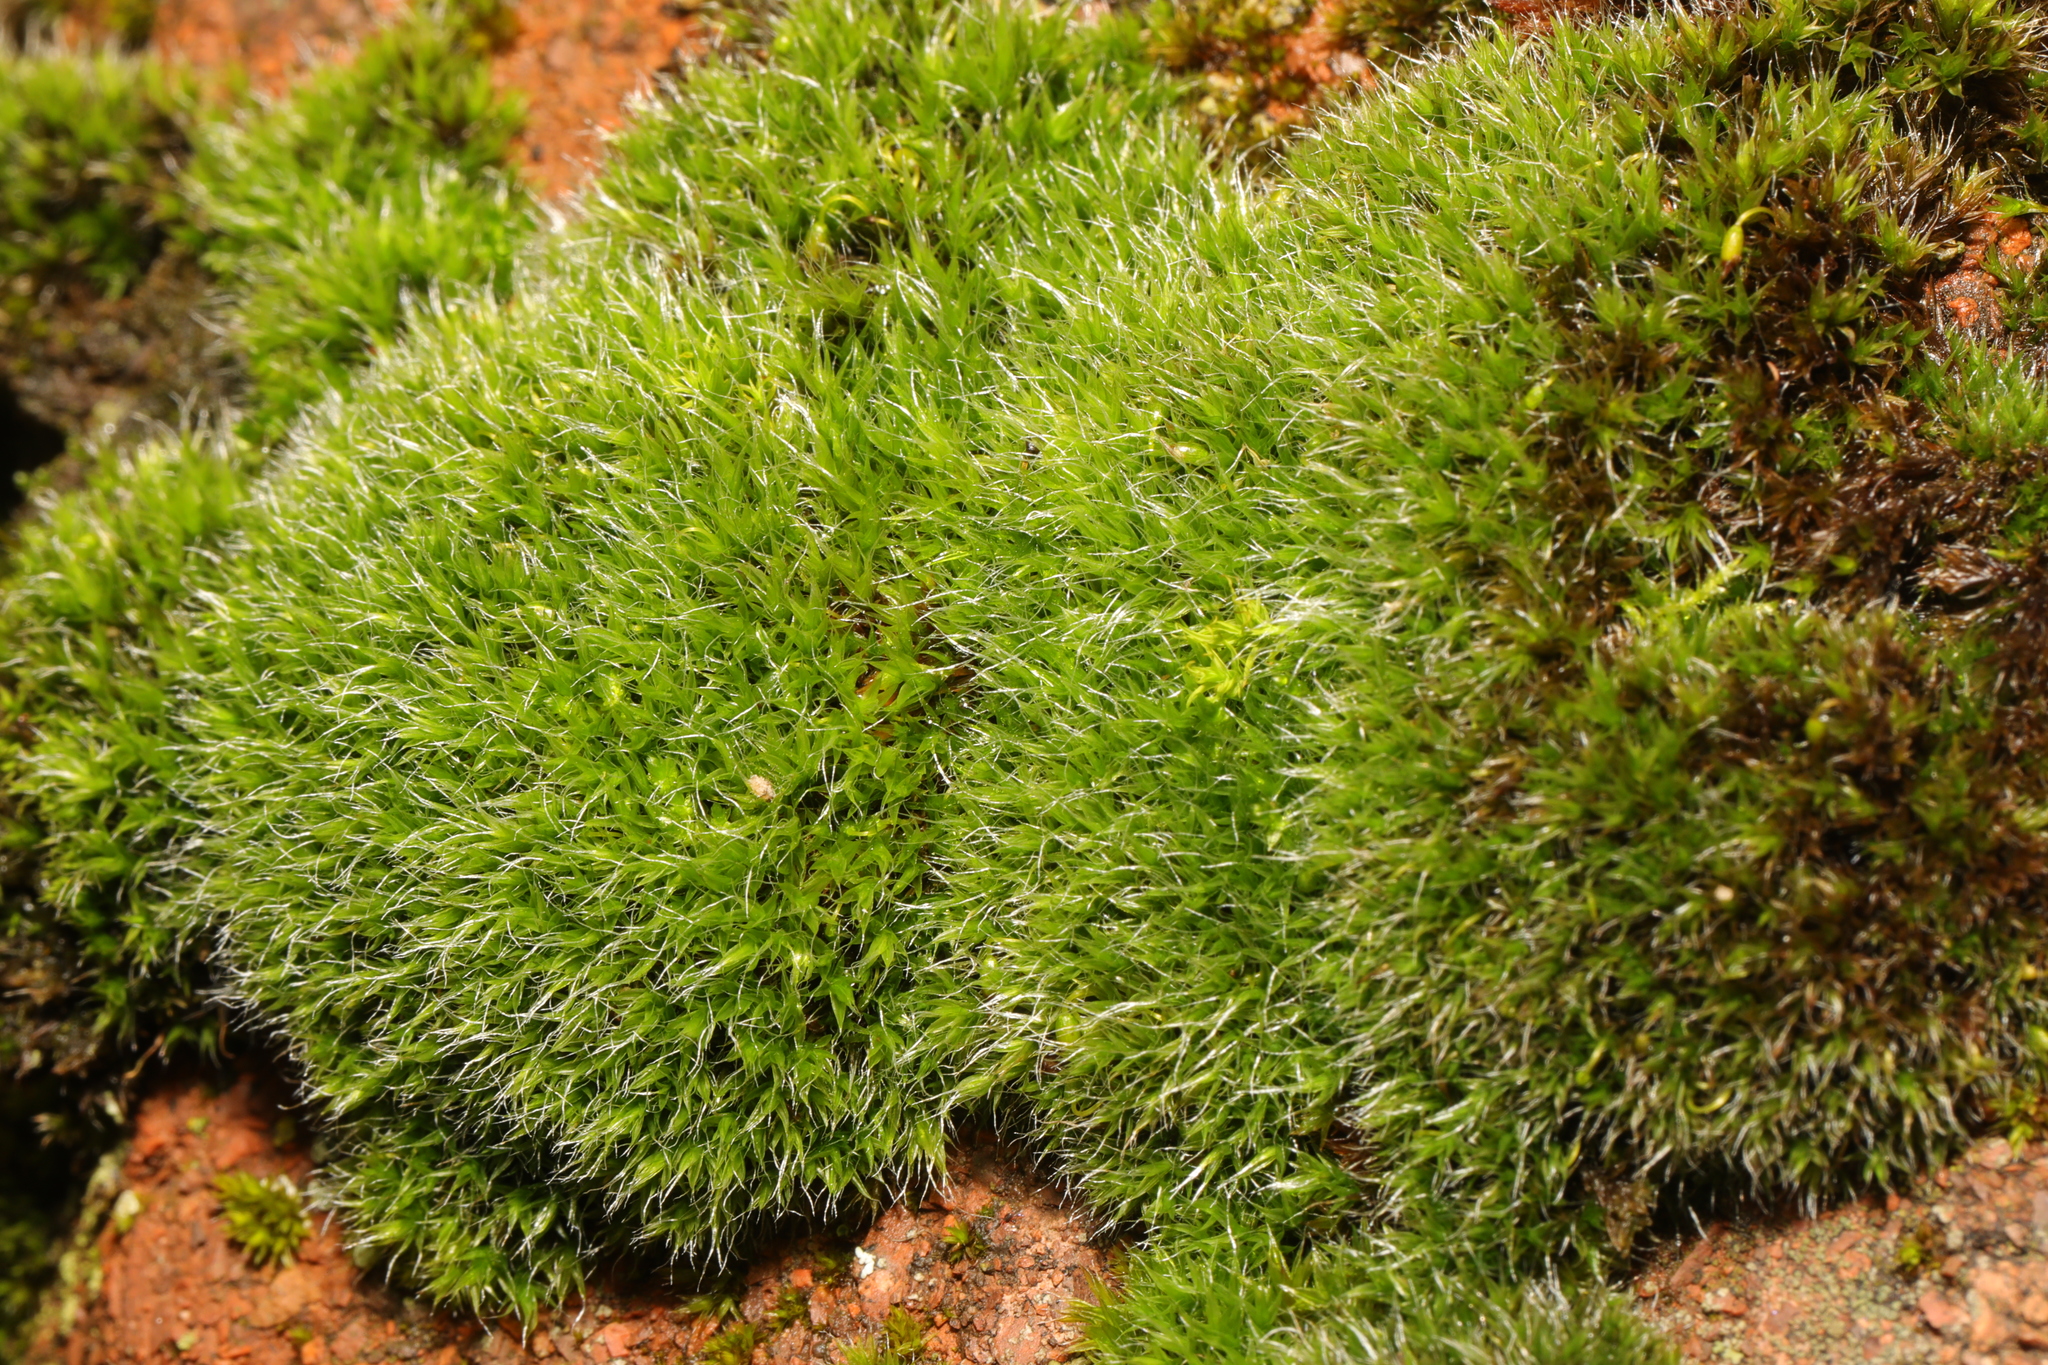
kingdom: Plantae
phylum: Bryophyta
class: Bryopsida
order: Grimmiales
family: Grimmiaceae
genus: Grimmia
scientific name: Grimmia pulvinata
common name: Grey-cushioned grimmia
